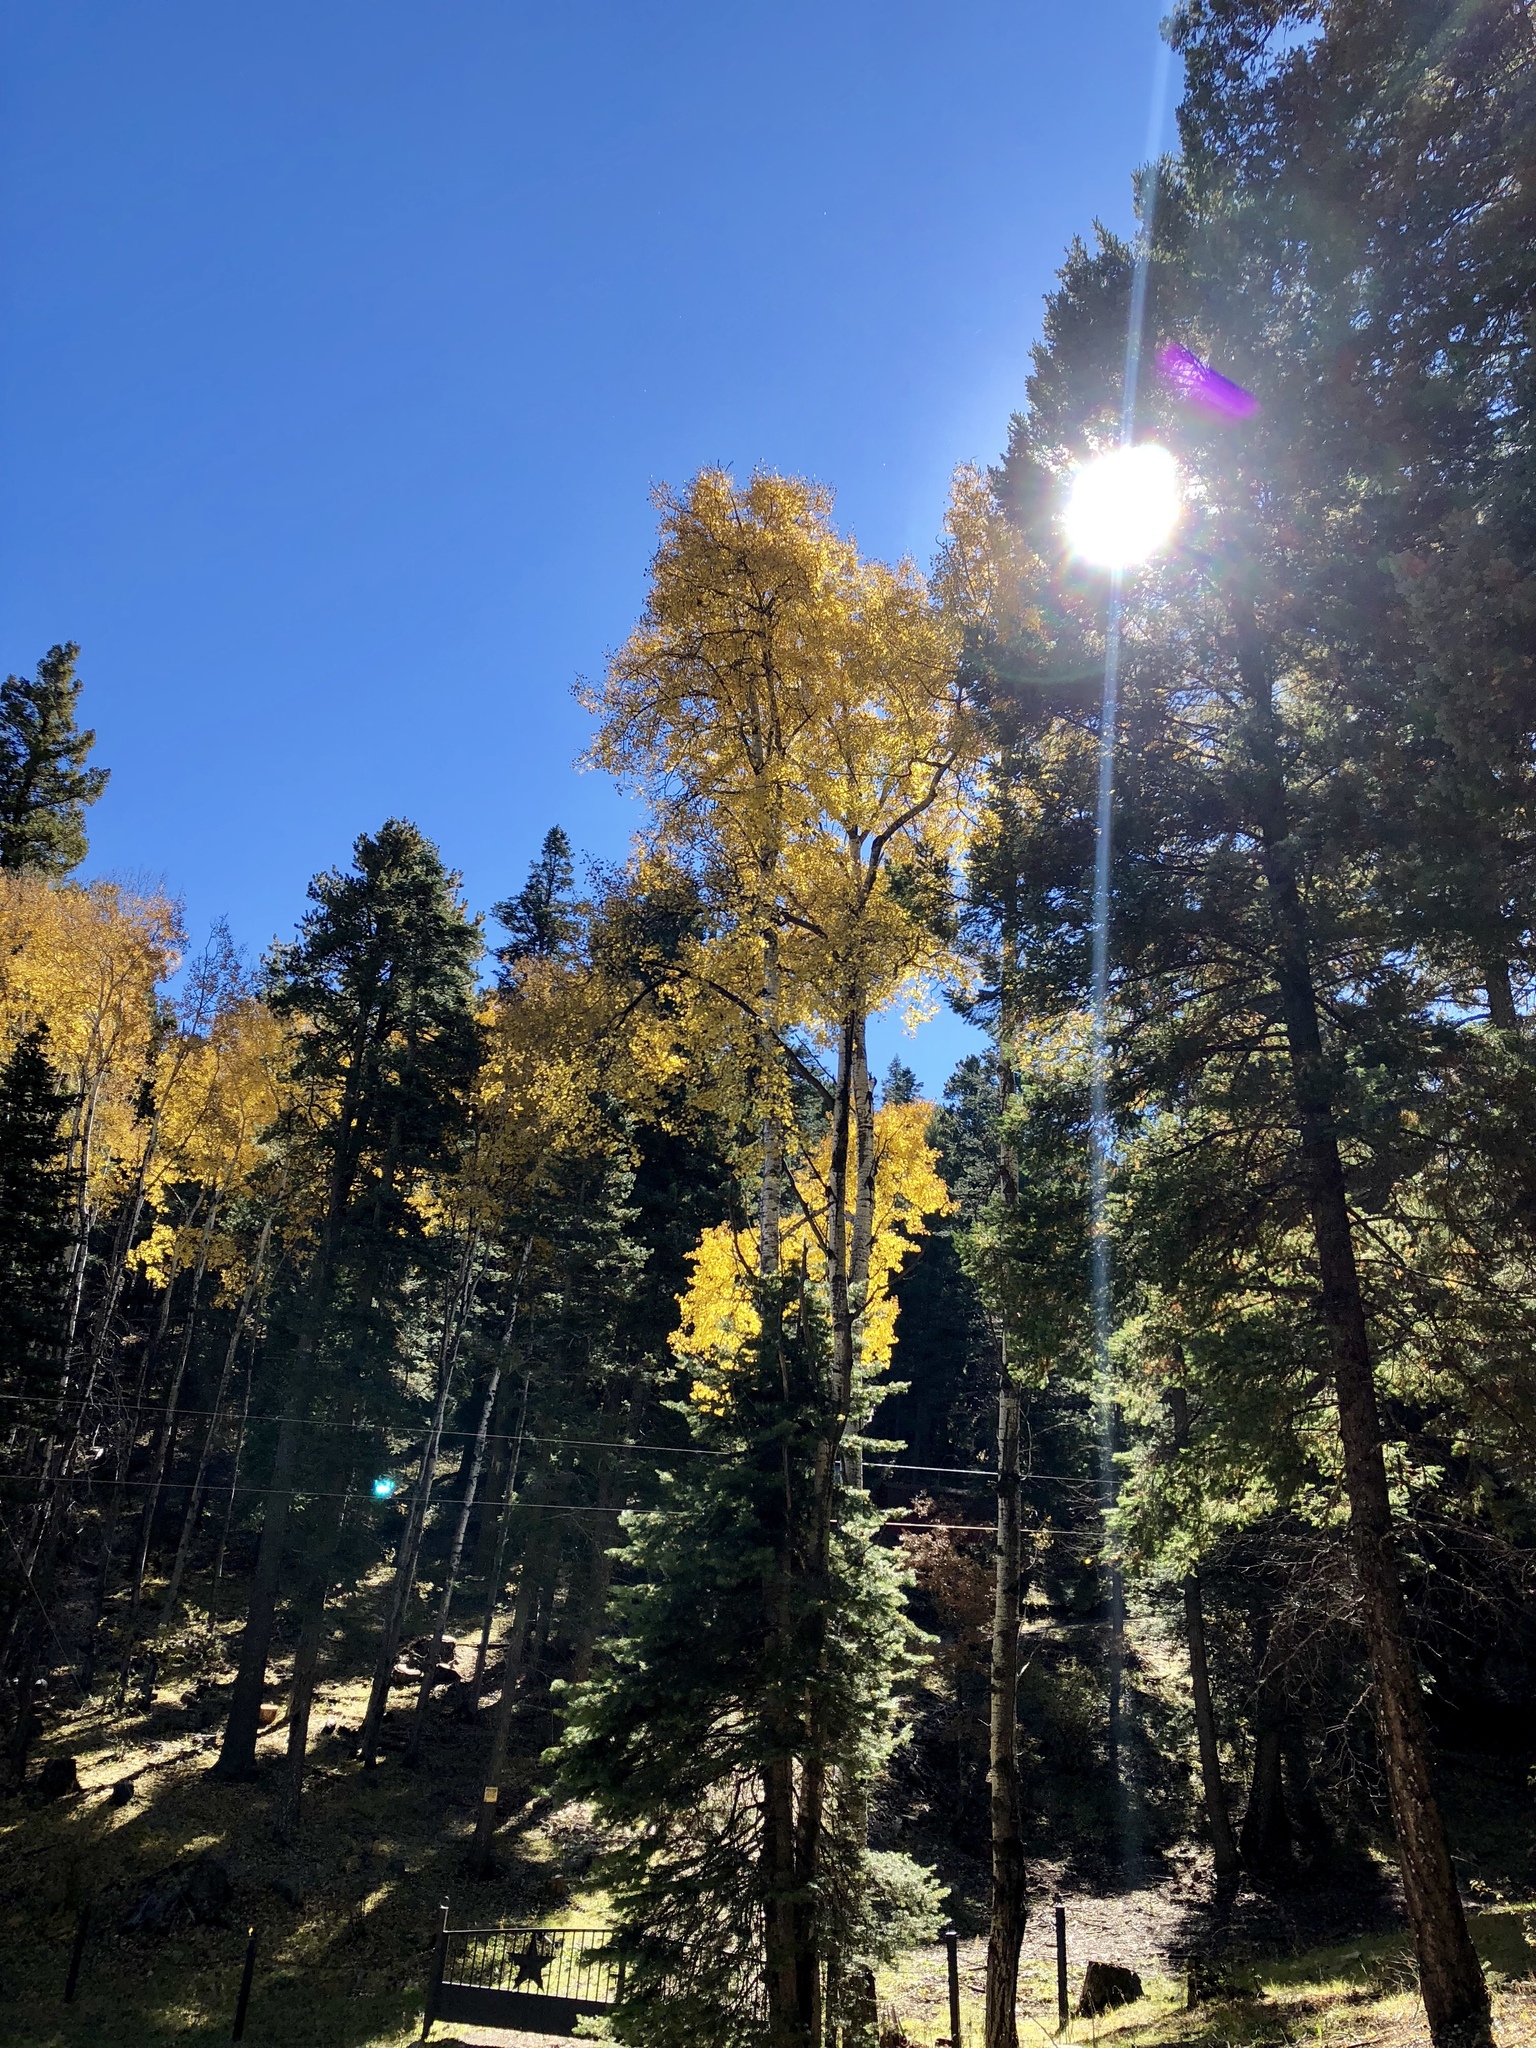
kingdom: Plantae
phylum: Tracheophyta
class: Magnoliopsida
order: Malpighiales
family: Salicaceae
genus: Populus
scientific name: Populus tremuloides
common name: Quaking aspen
